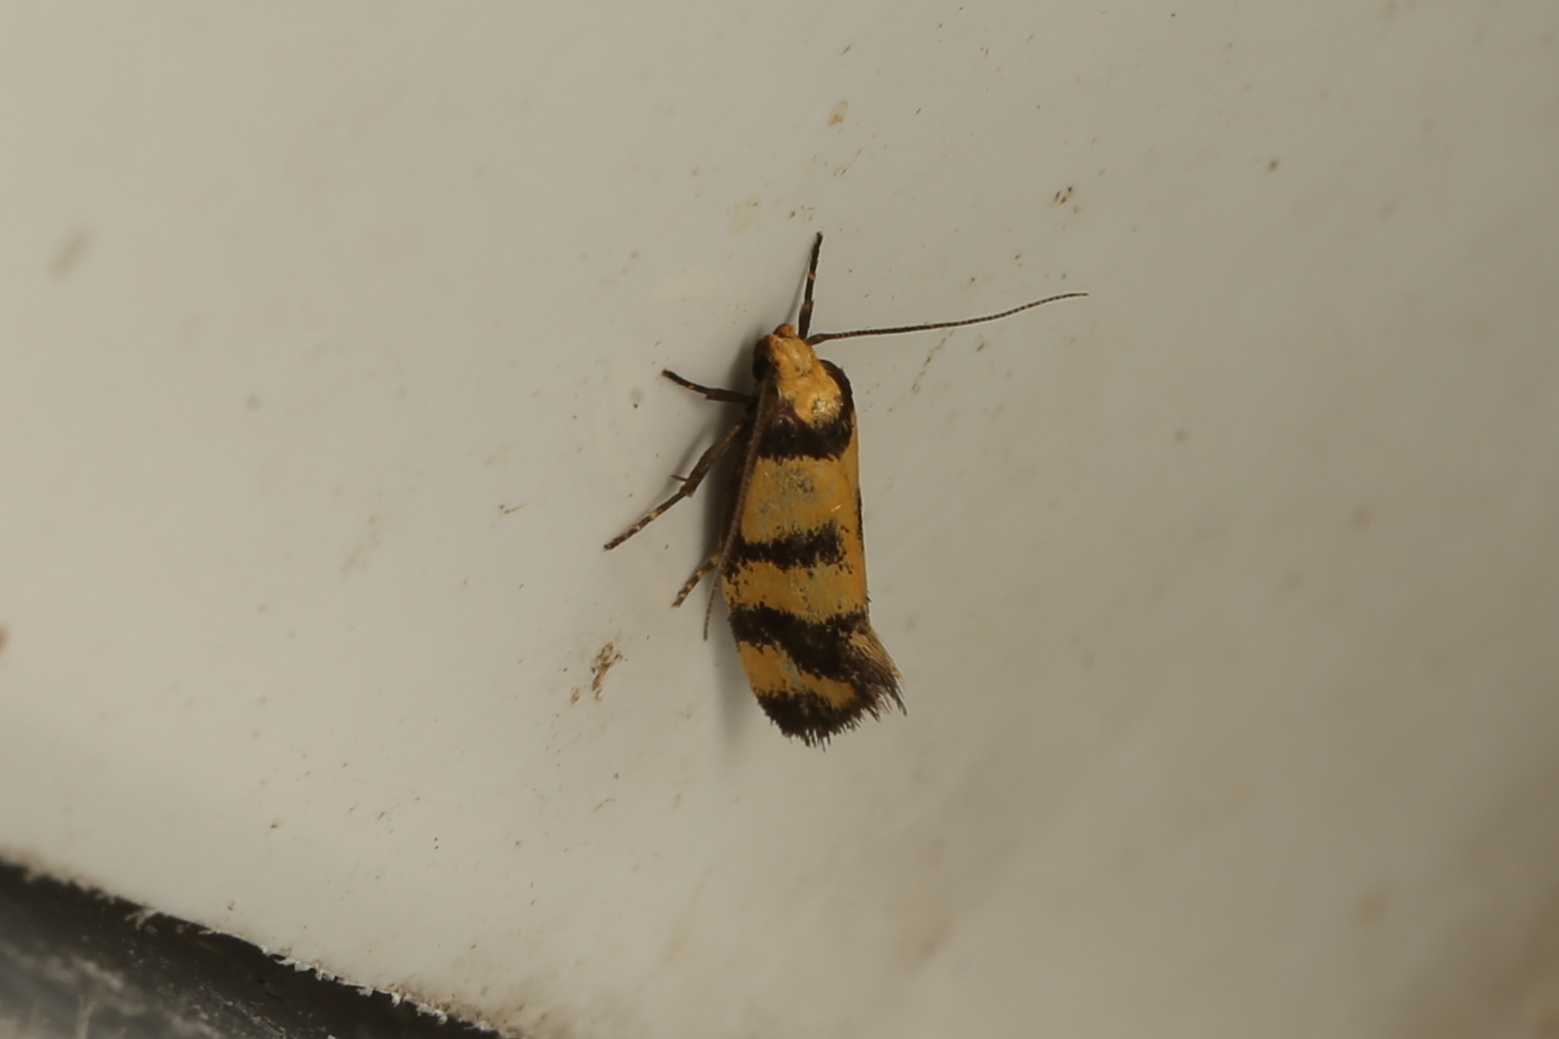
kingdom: Animalia
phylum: Arthropoda
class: Insecta
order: Lepidoptera
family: Oecophoridae
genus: Olbonoma
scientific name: Olbonoma triptycha
